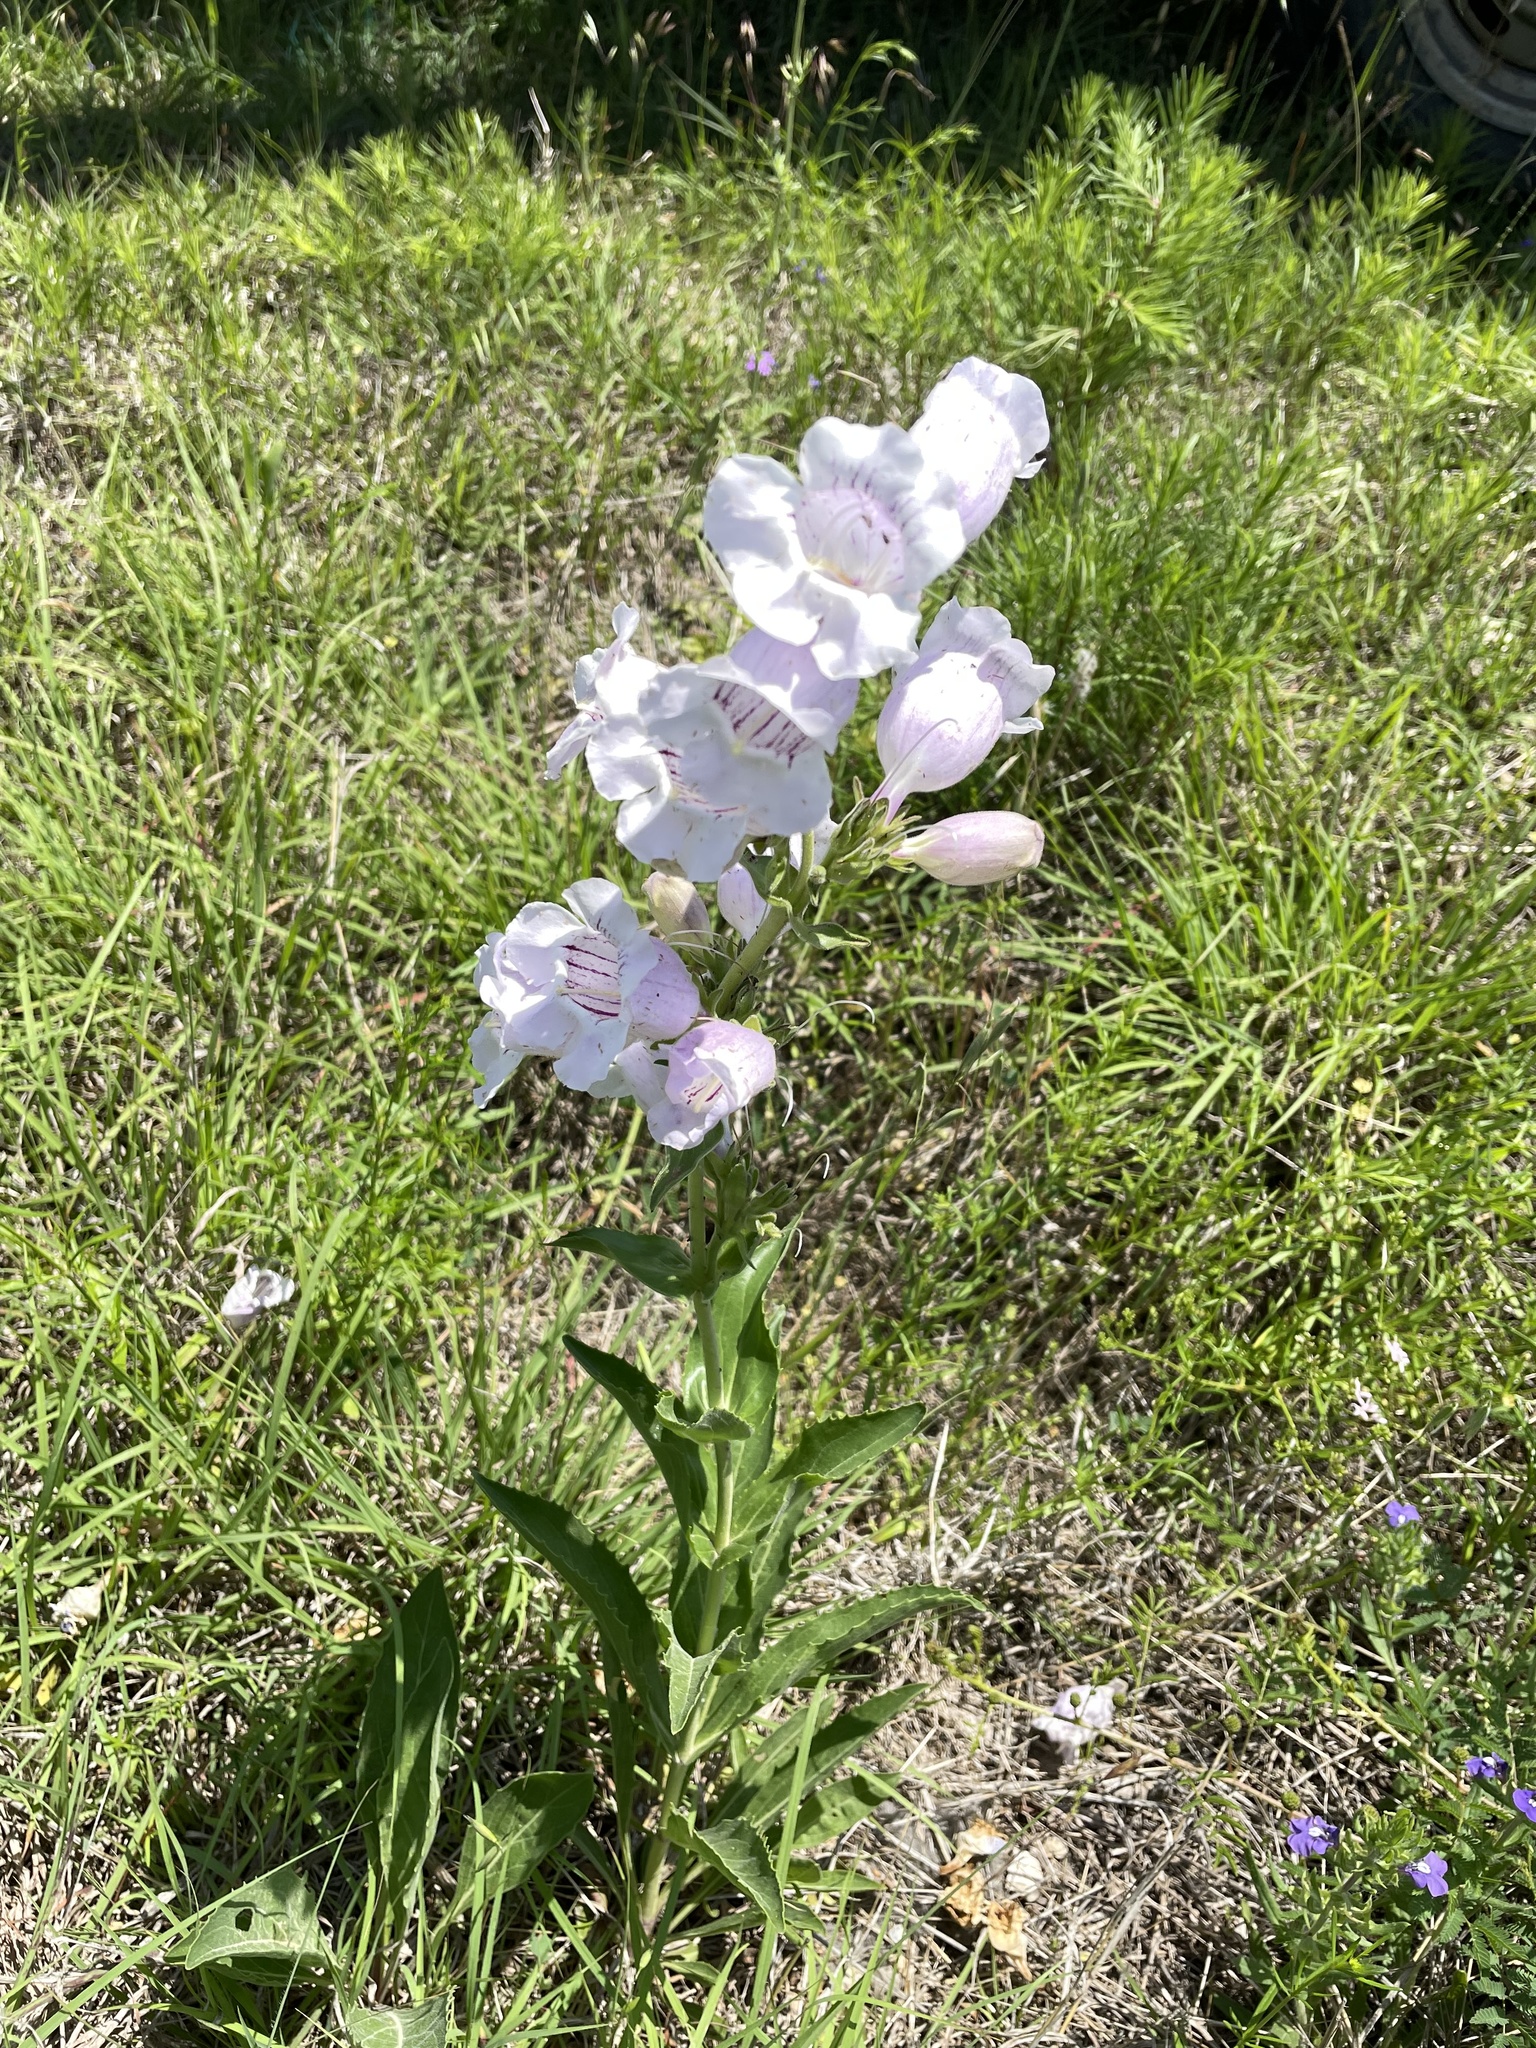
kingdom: Plantae
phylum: Tracheophyta
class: Magnoliopsida
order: Lamiales
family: Plantaginaceae
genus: Penstemon
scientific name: Penstemon cobaea
